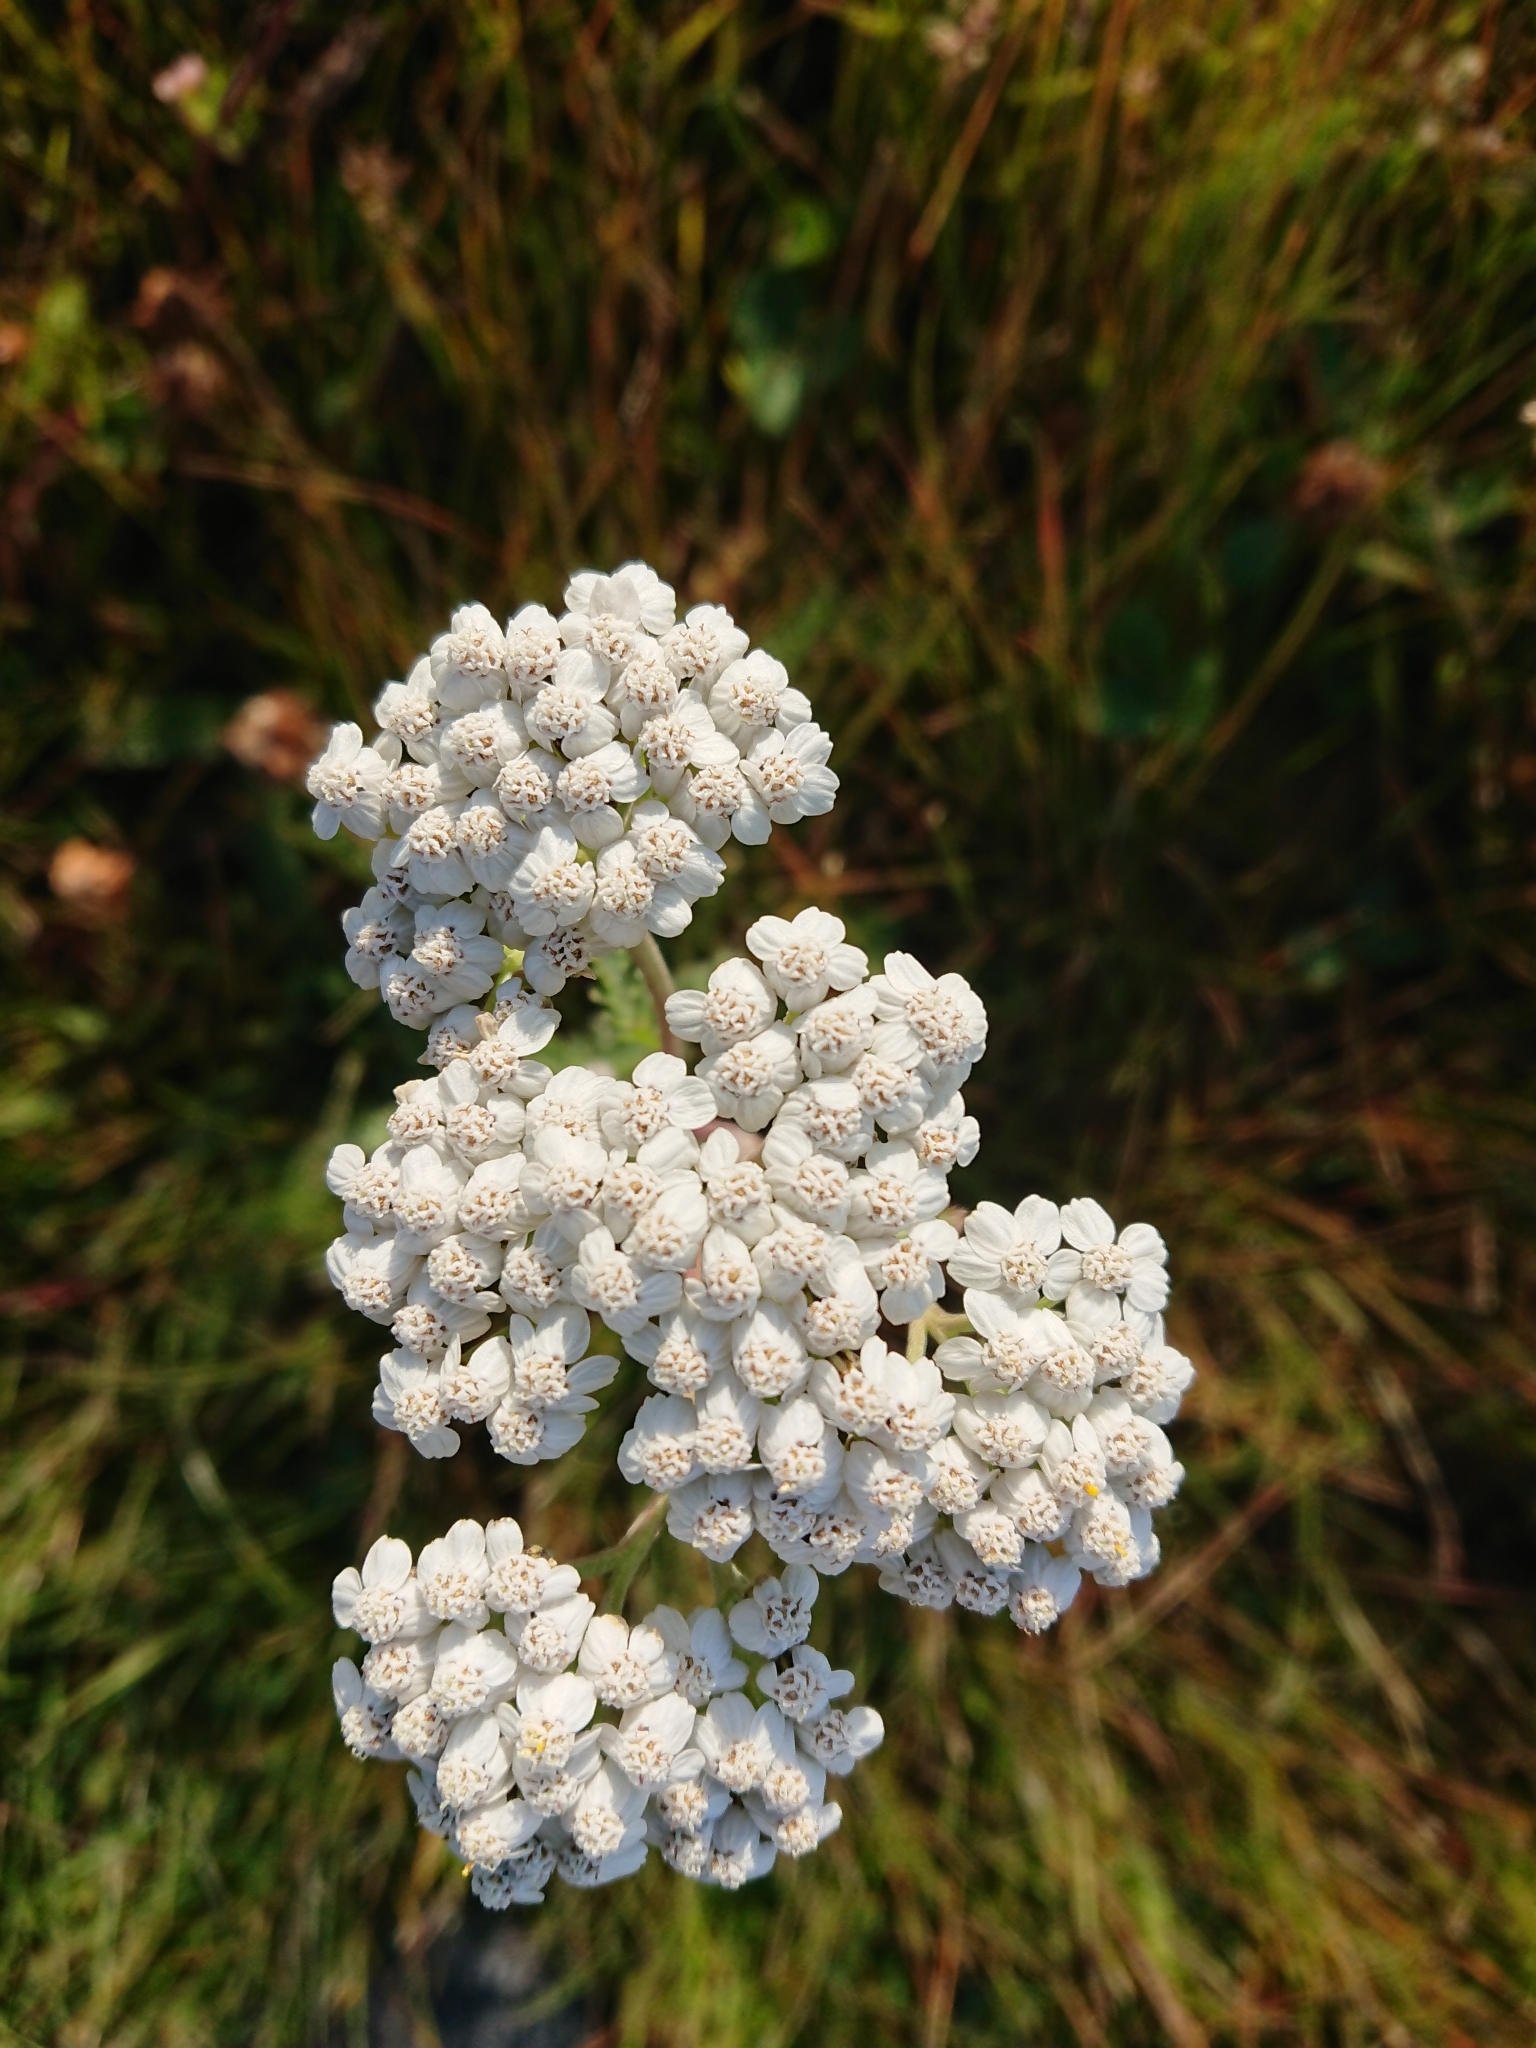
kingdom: Plantae
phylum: Tracheophyta
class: Magnoliopsida
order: Asterales
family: Asteraceae
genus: Achillea
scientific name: Achillea millefolium
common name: Yarrow
